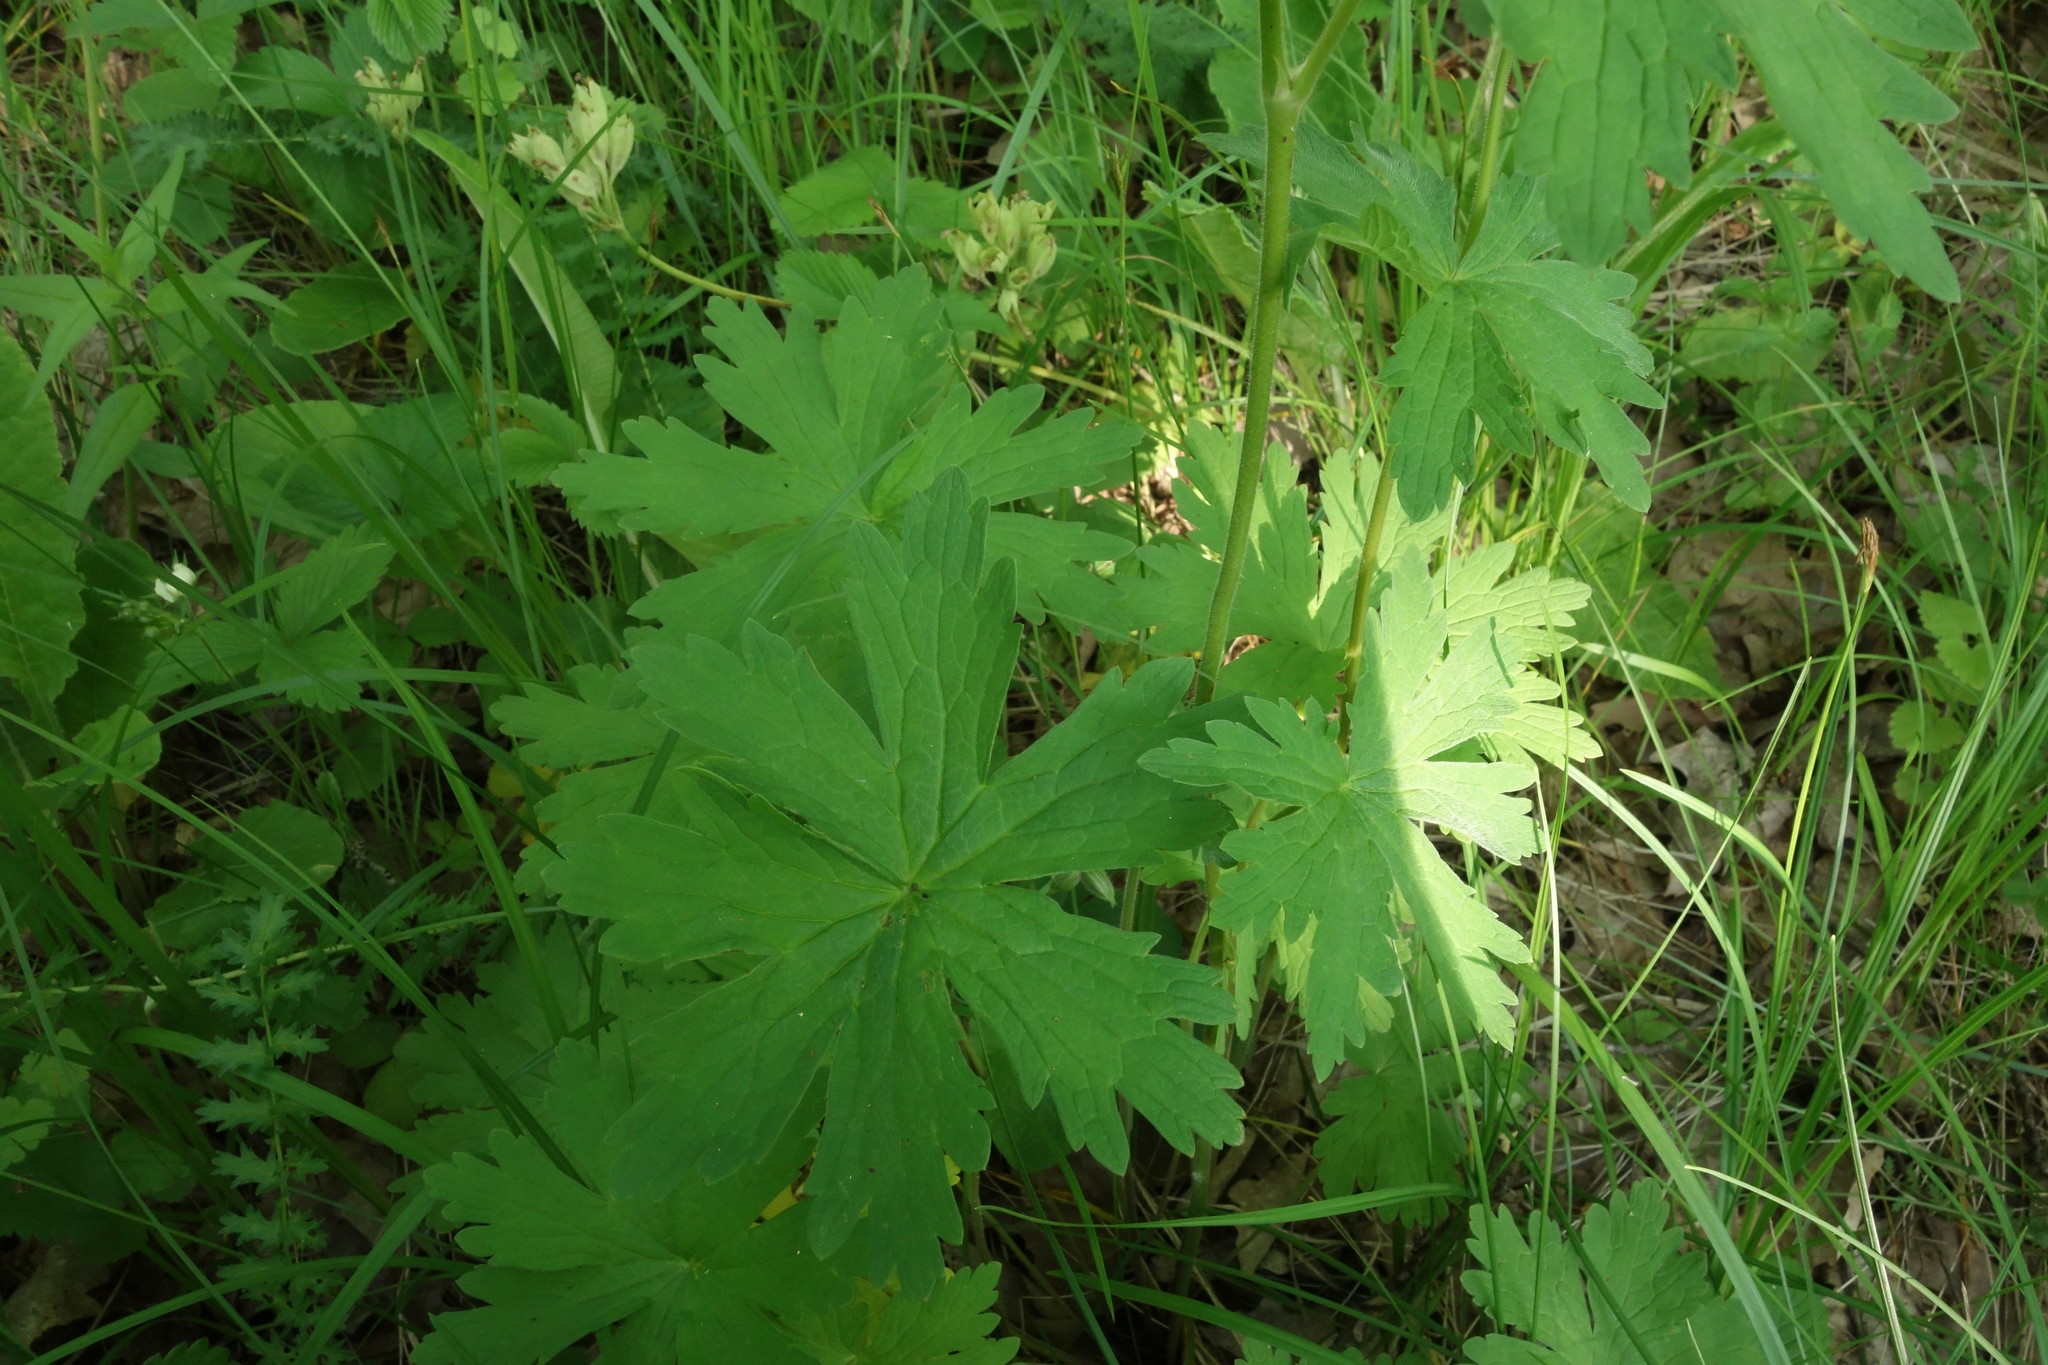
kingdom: Plantae
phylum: Tracheophyta
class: Magnoliopsida
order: Geraniales
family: Geraniaceae
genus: Geranium
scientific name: Geranium sylvaticum
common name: Wood crane's-bill
